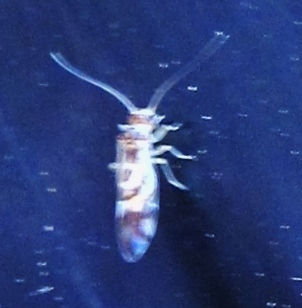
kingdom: Animalia
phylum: Arthropoda
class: Insecta
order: Psocodea
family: Stenopsocidae
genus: Graphopsocus
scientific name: Graphopsocus cruciatus
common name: Lizard bark louse
